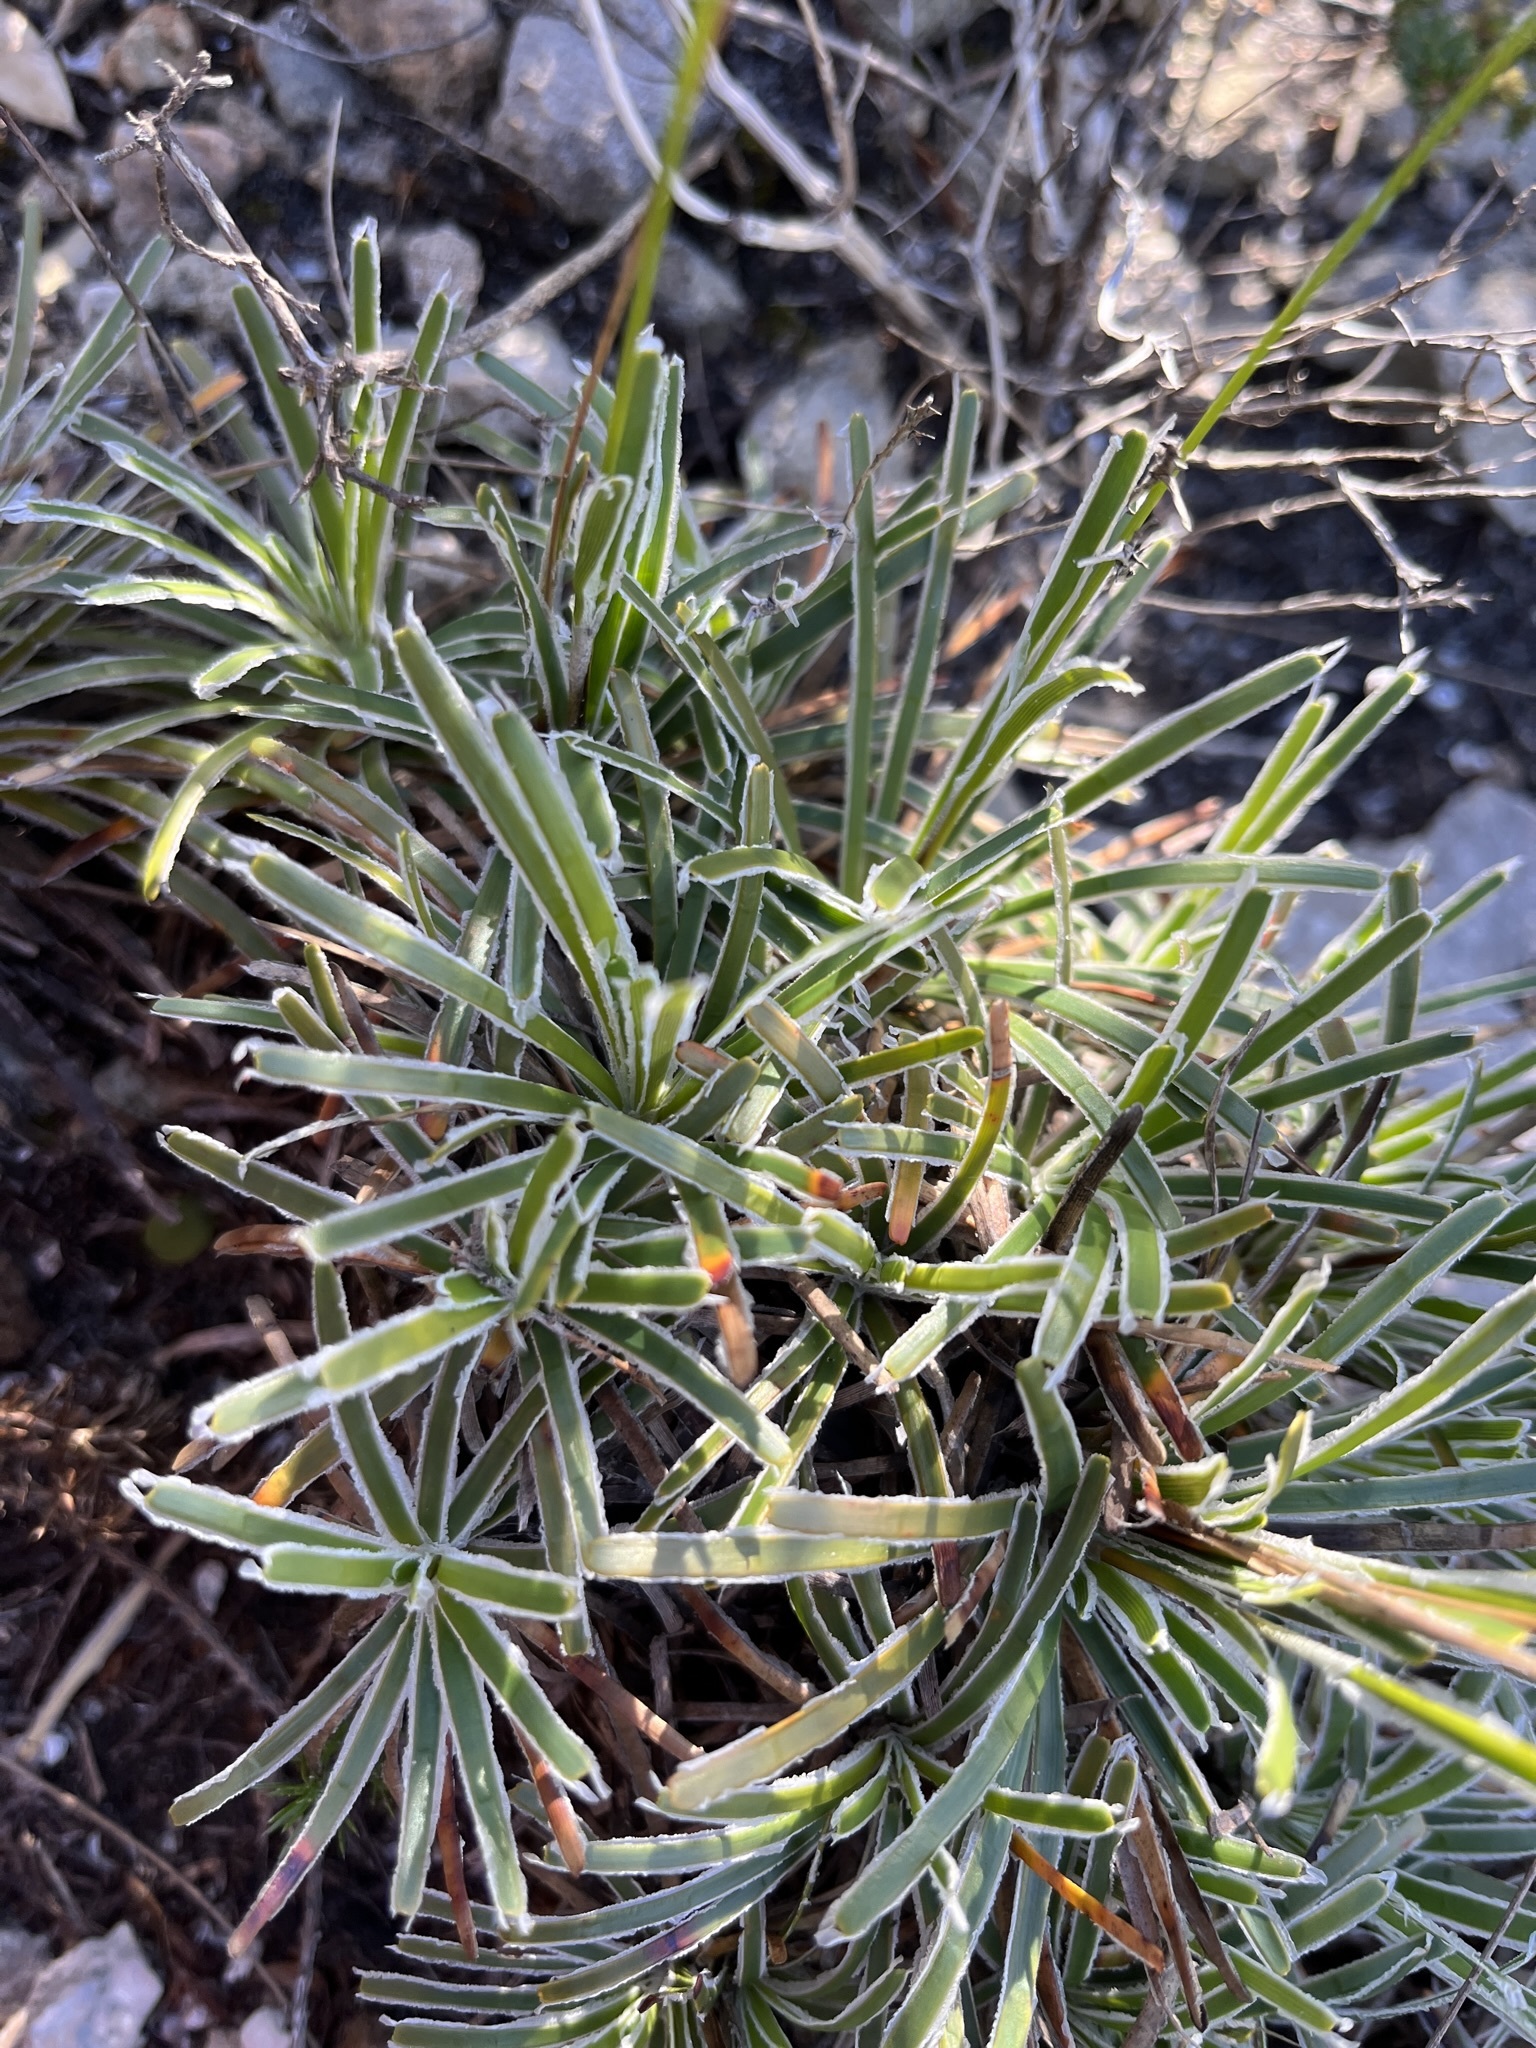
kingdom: Plantae
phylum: Tracheophyta
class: Liliopsida
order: Poales
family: Cyperaceae
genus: Ficinia
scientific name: Ficinia praemorsa
